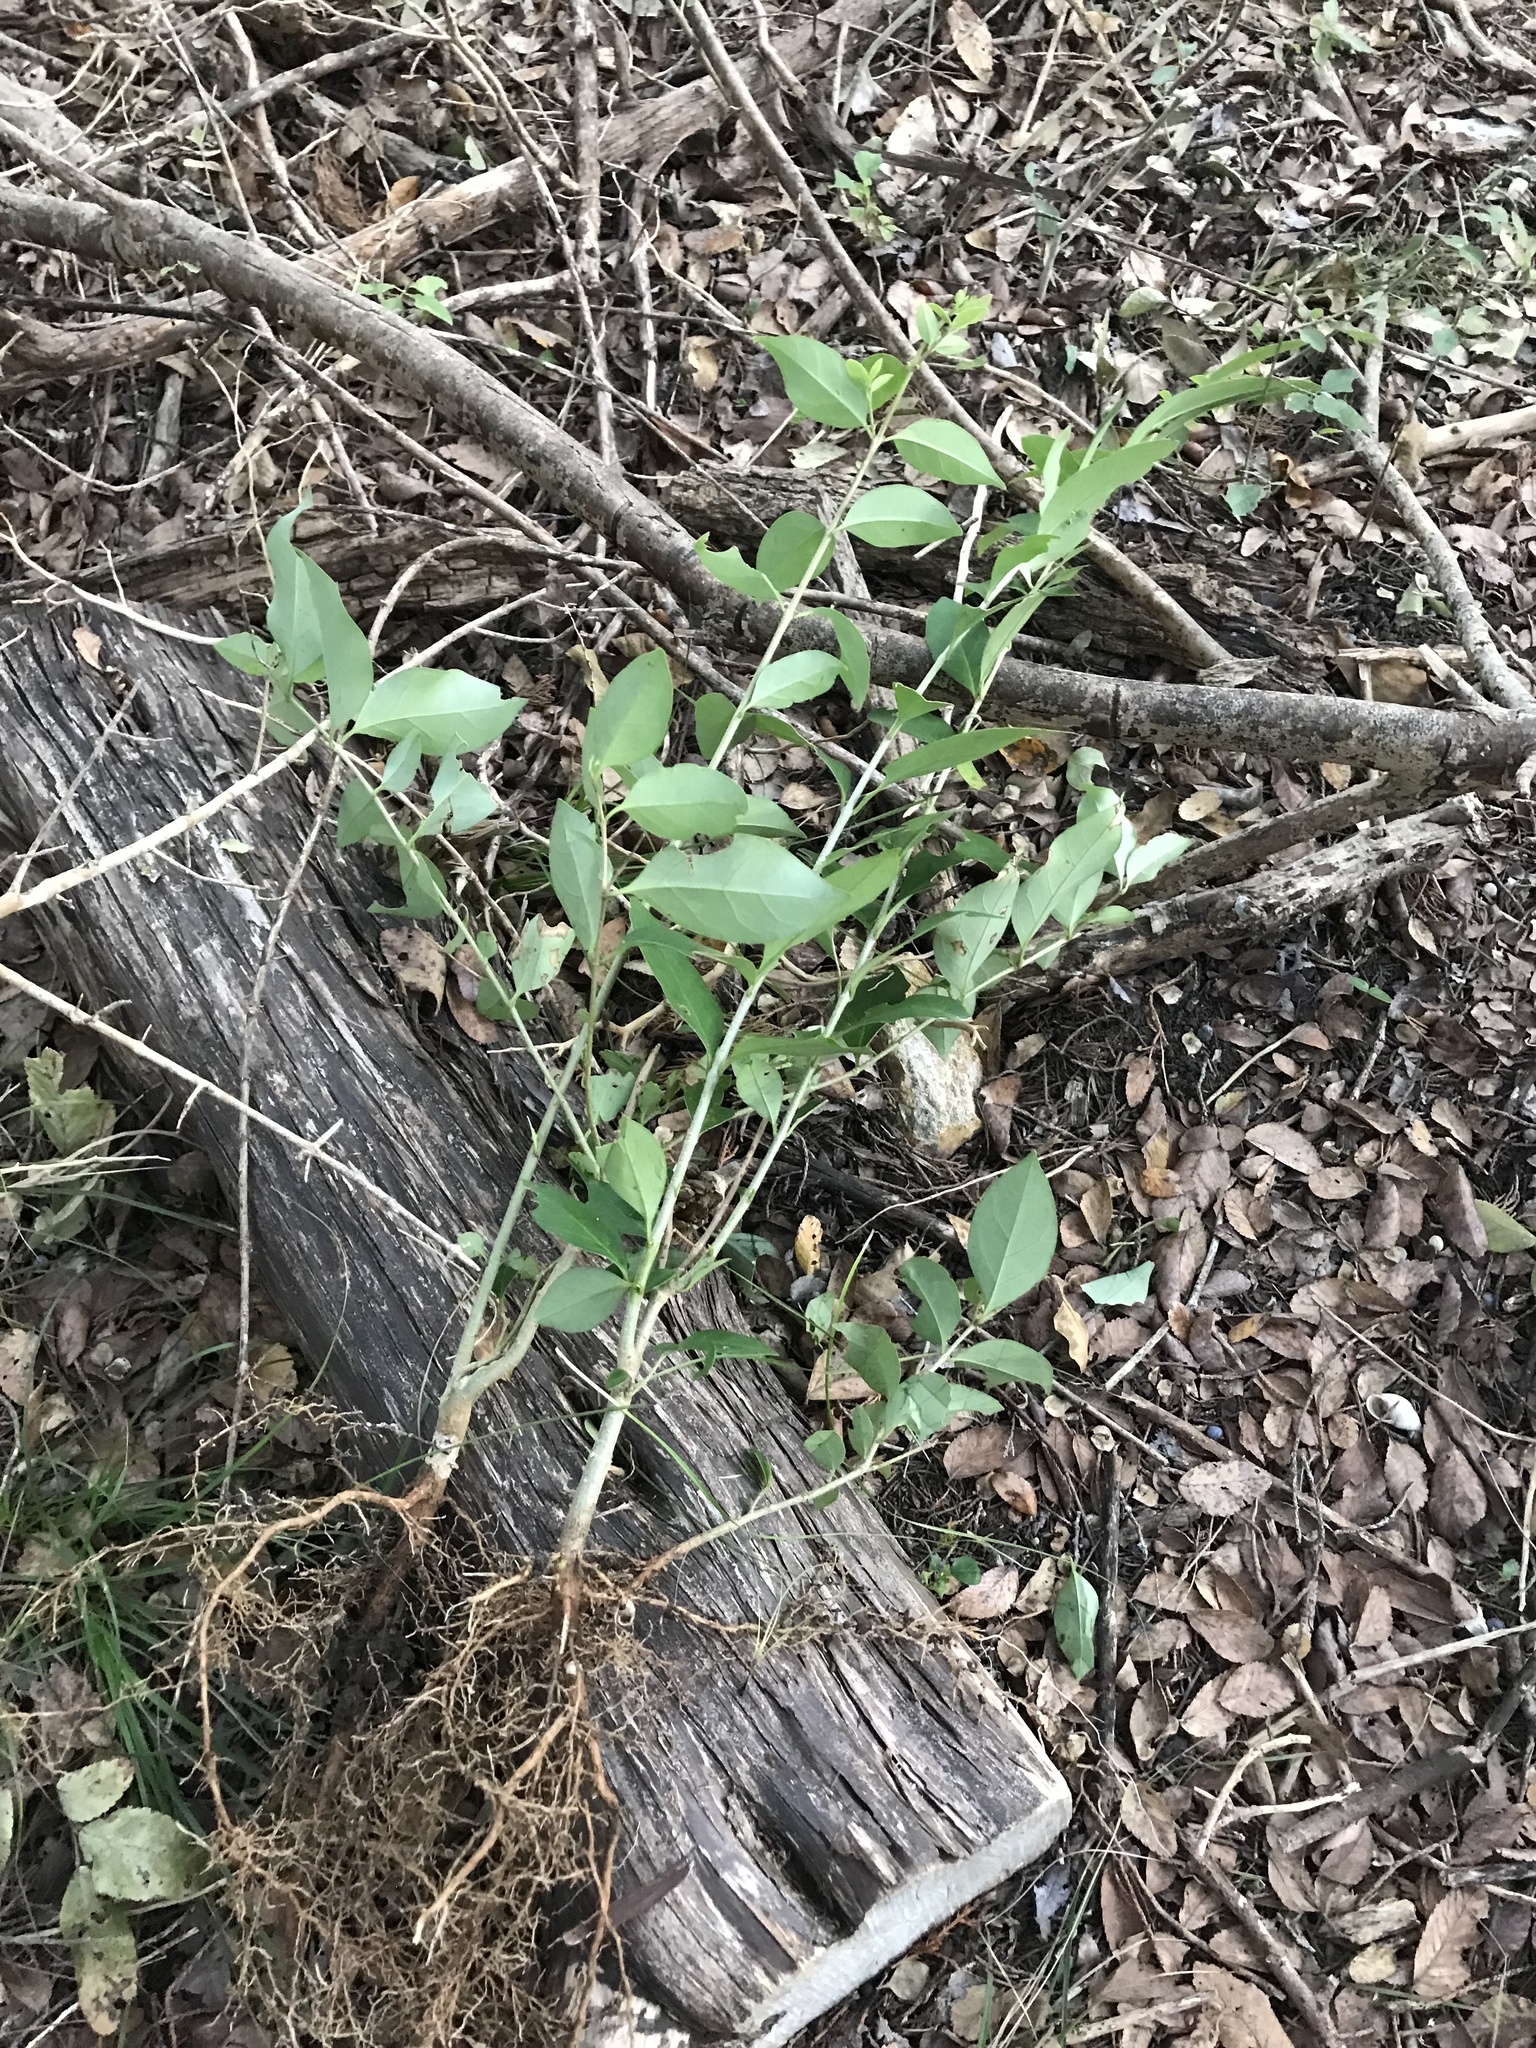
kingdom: Plantae
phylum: Tracheophyta
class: Magnoliopsida
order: Lamiales
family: Oleaceae
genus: Ligustrum
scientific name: Ligustrum lucidum
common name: Glossy privet
